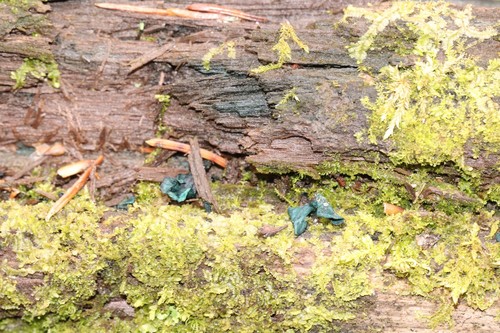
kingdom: Fungi
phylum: Ascomycota
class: Leotiomycetes
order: Helotiales
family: Chlorociboriaceae
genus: Chlorociboria
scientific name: Chlorociboria aeruginascens
